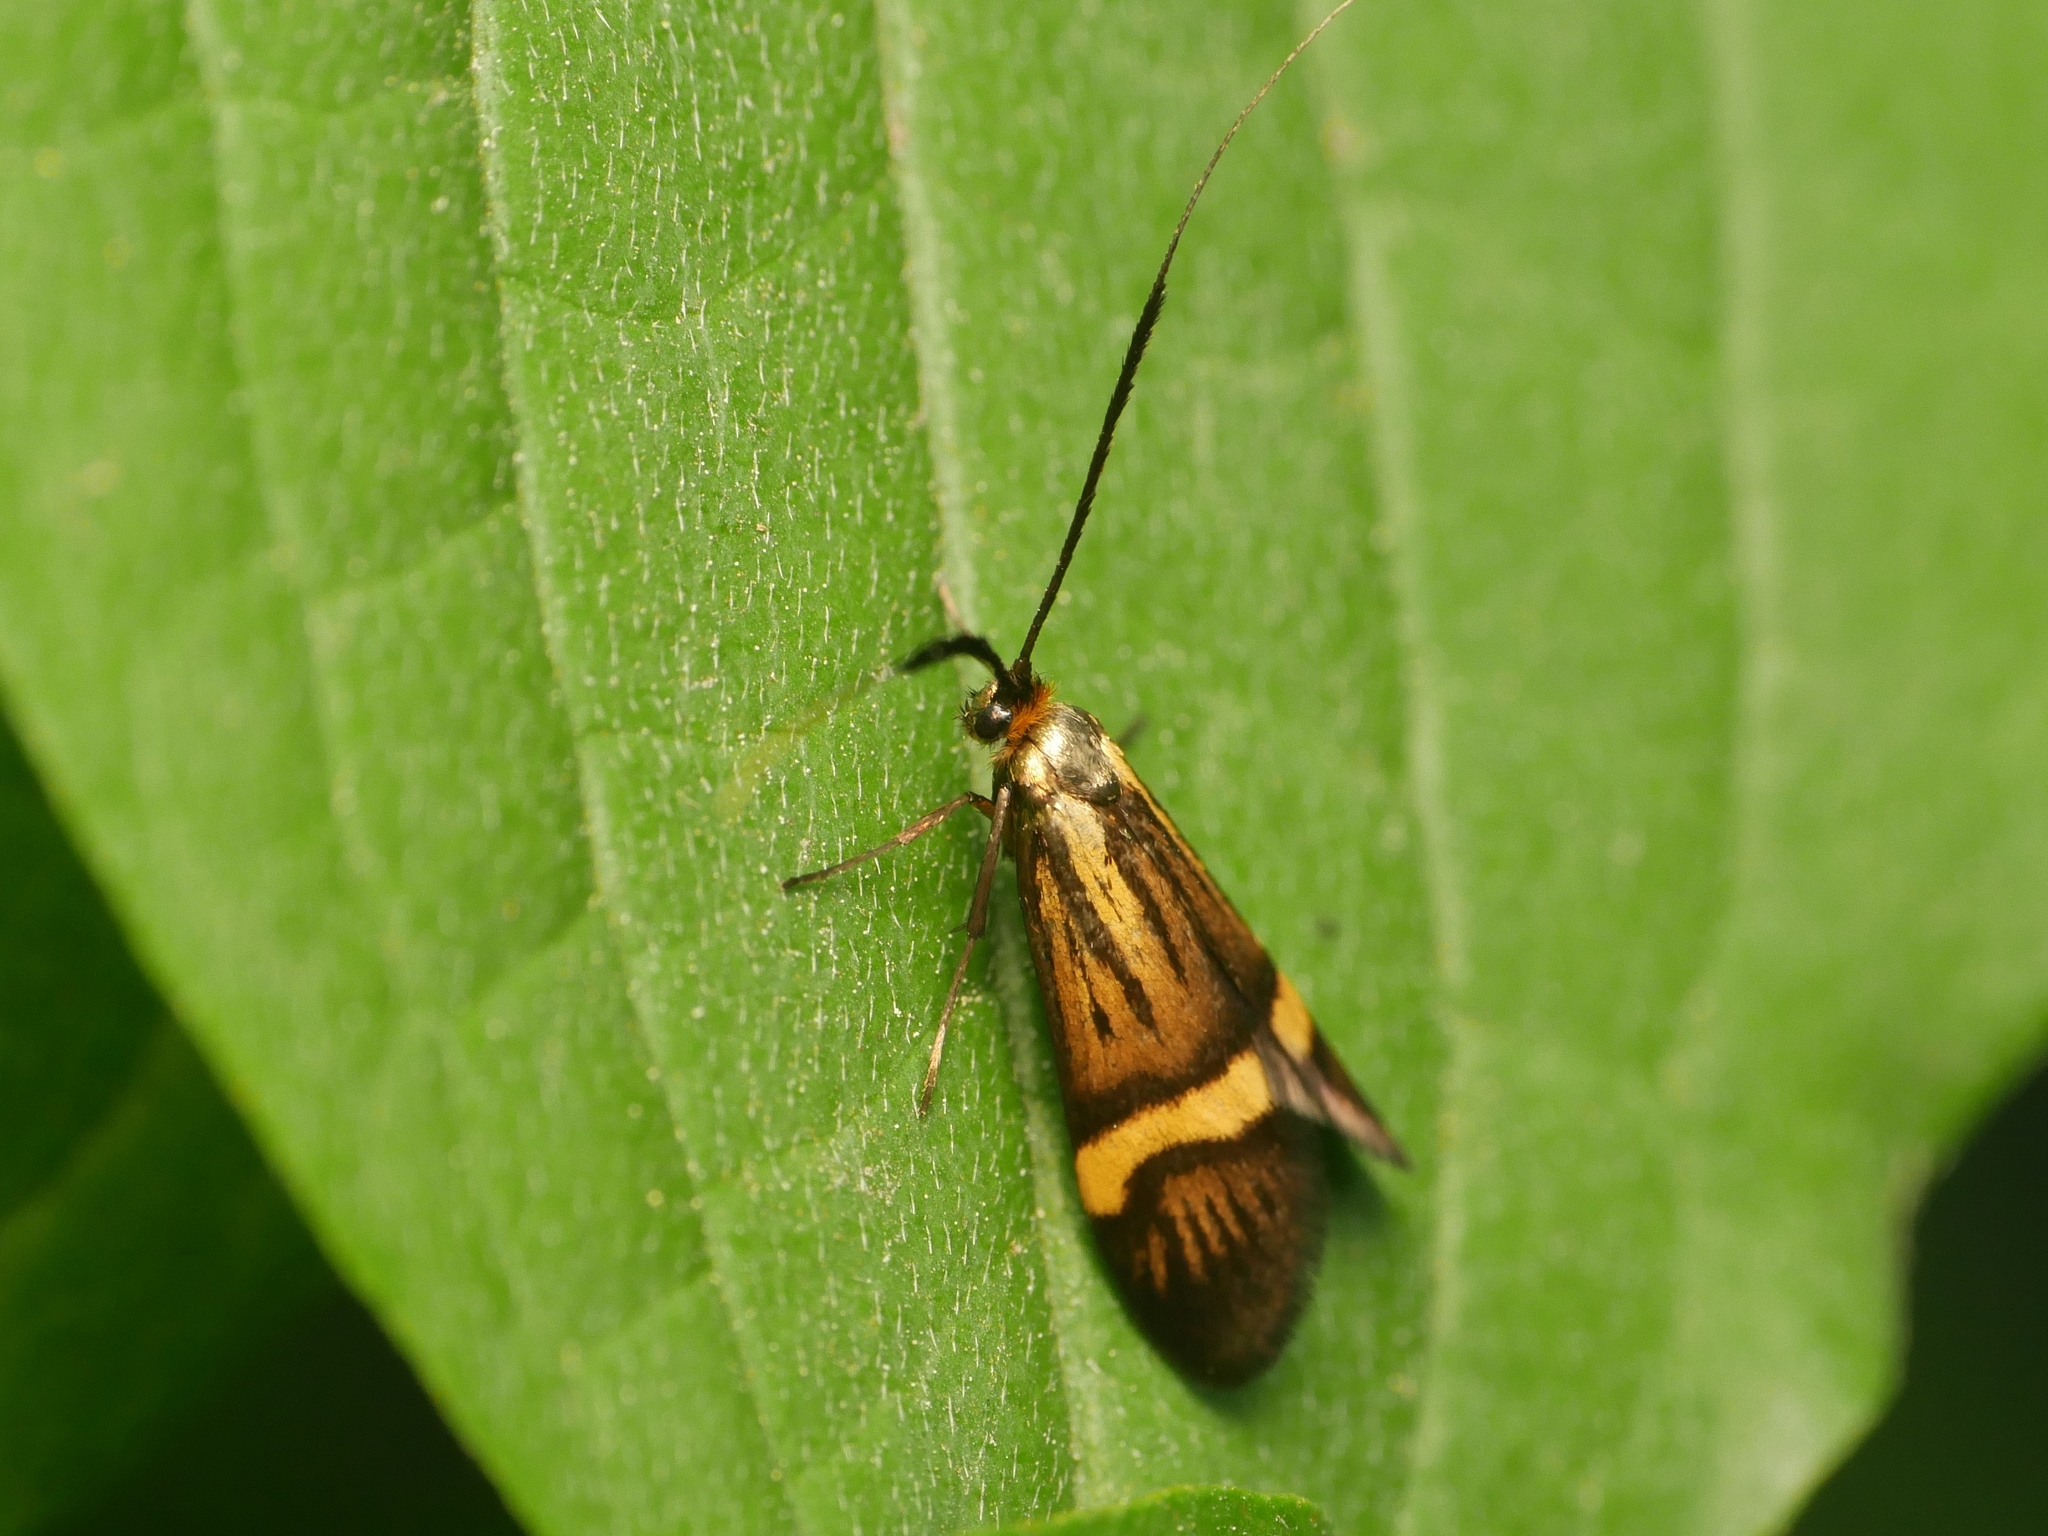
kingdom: Animalia
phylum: Arthropoda
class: Insecta
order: Lepidoptera
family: Adelidae
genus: Nemophora
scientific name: Nemophora degeerella
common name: Yellow-barred long-horn
